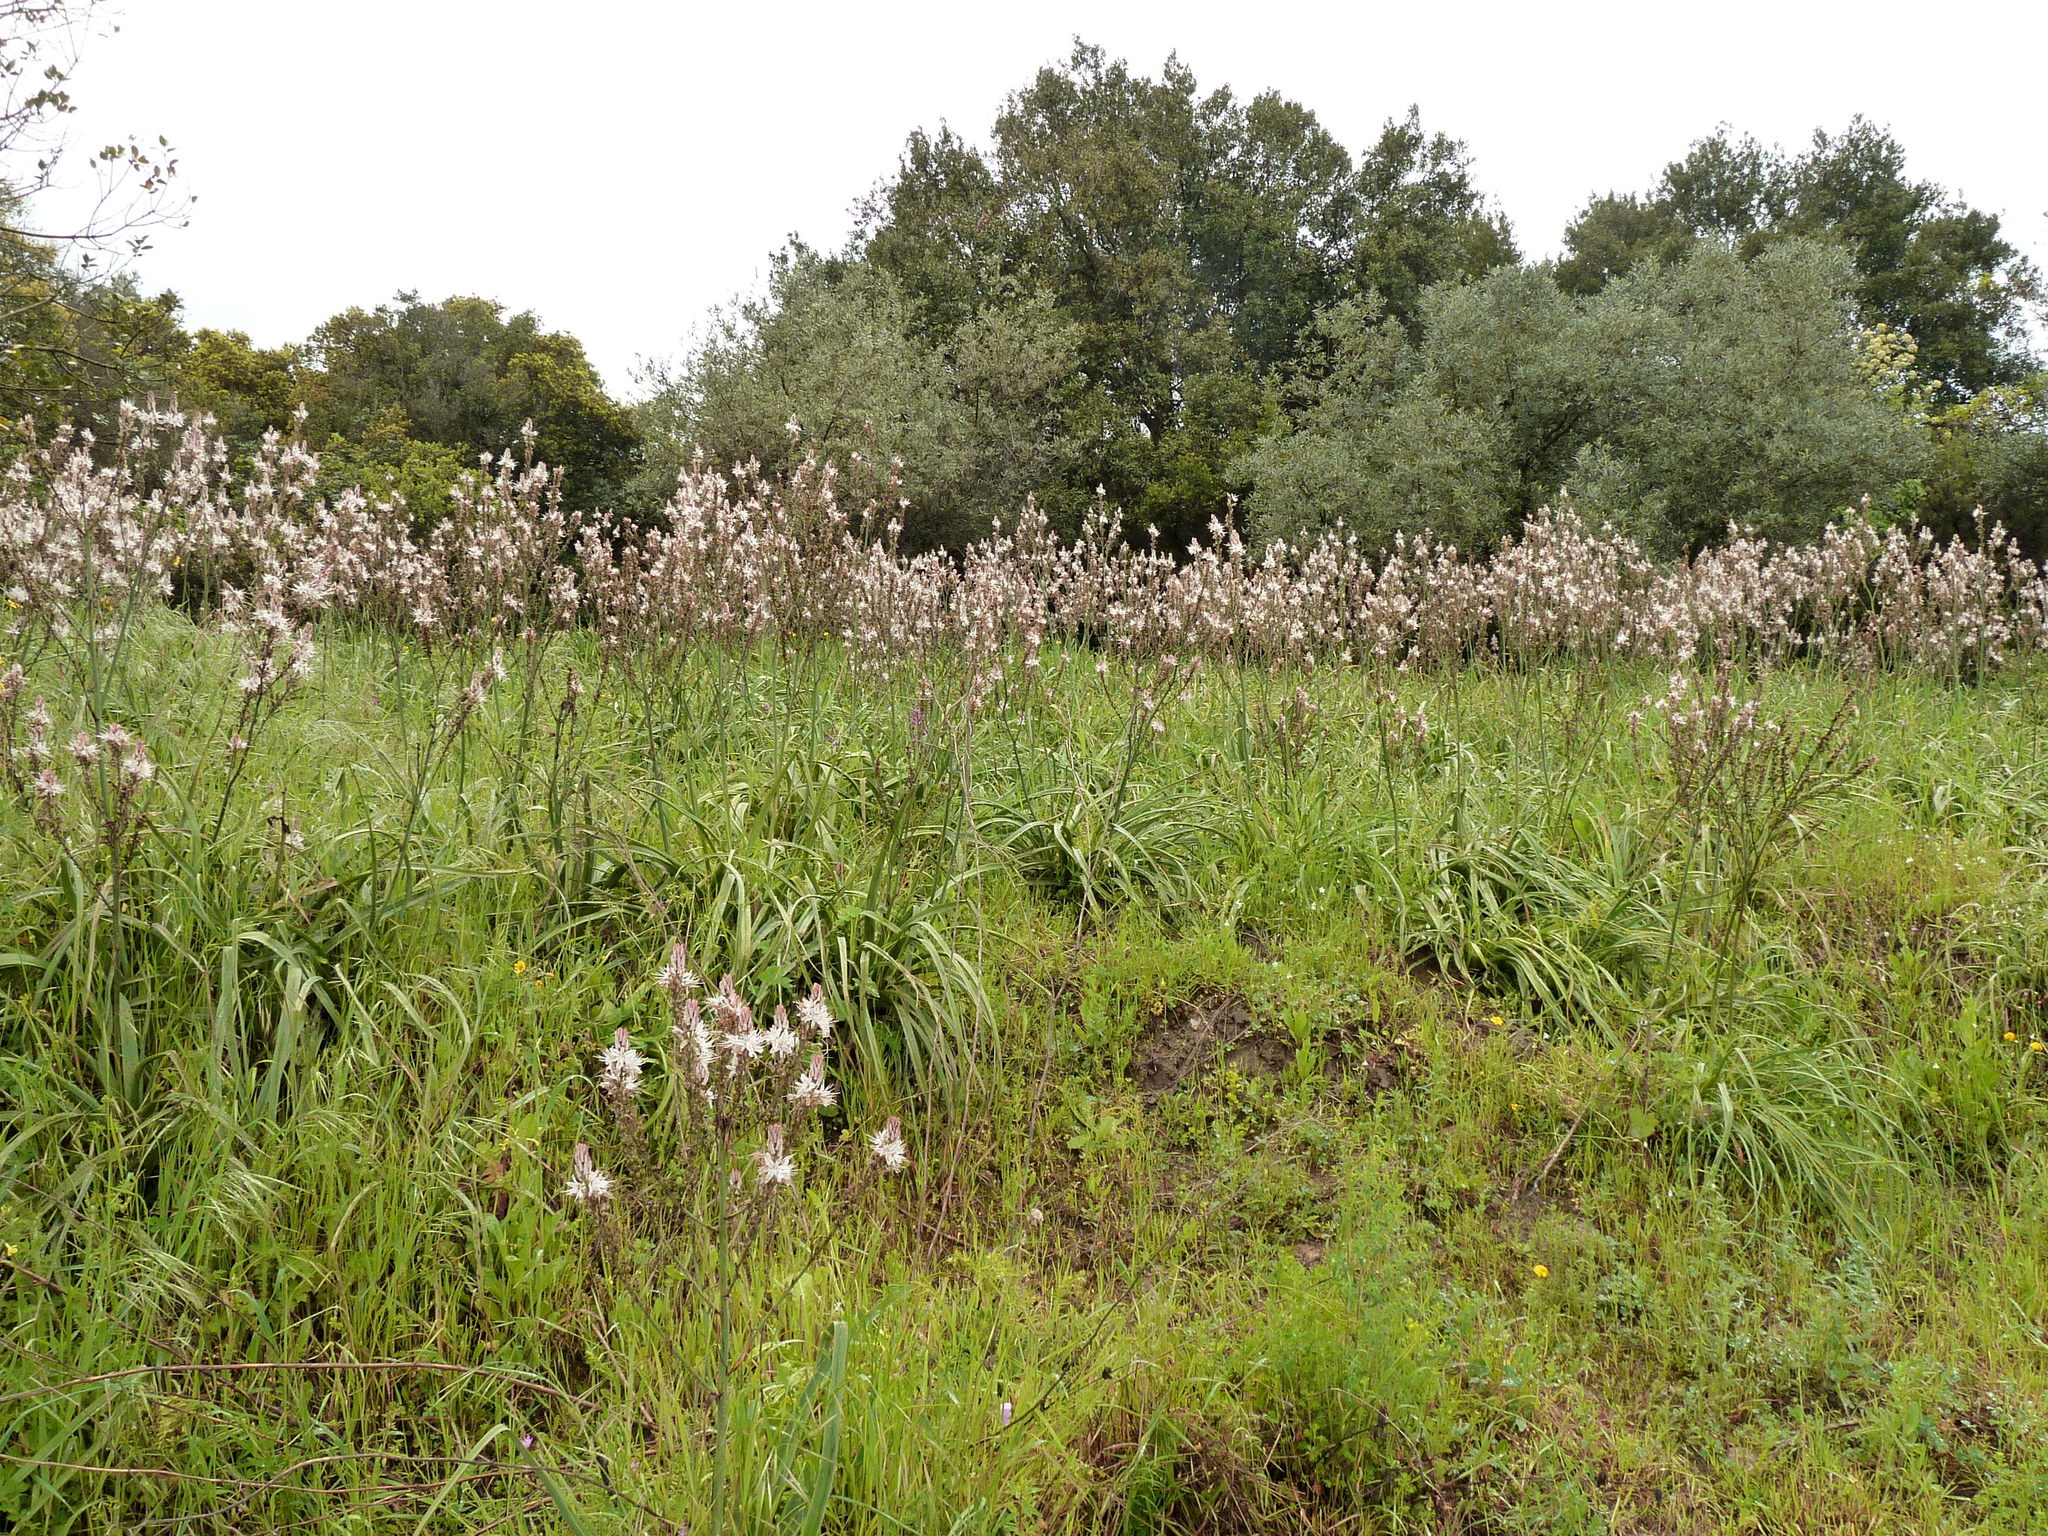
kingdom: Plantae
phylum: Tracheophyta
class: Liliopsida
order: Asparagales
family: Asphodelaceae
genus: Asphodelus
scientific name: Asphodelus ramosus
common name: Silverrod
